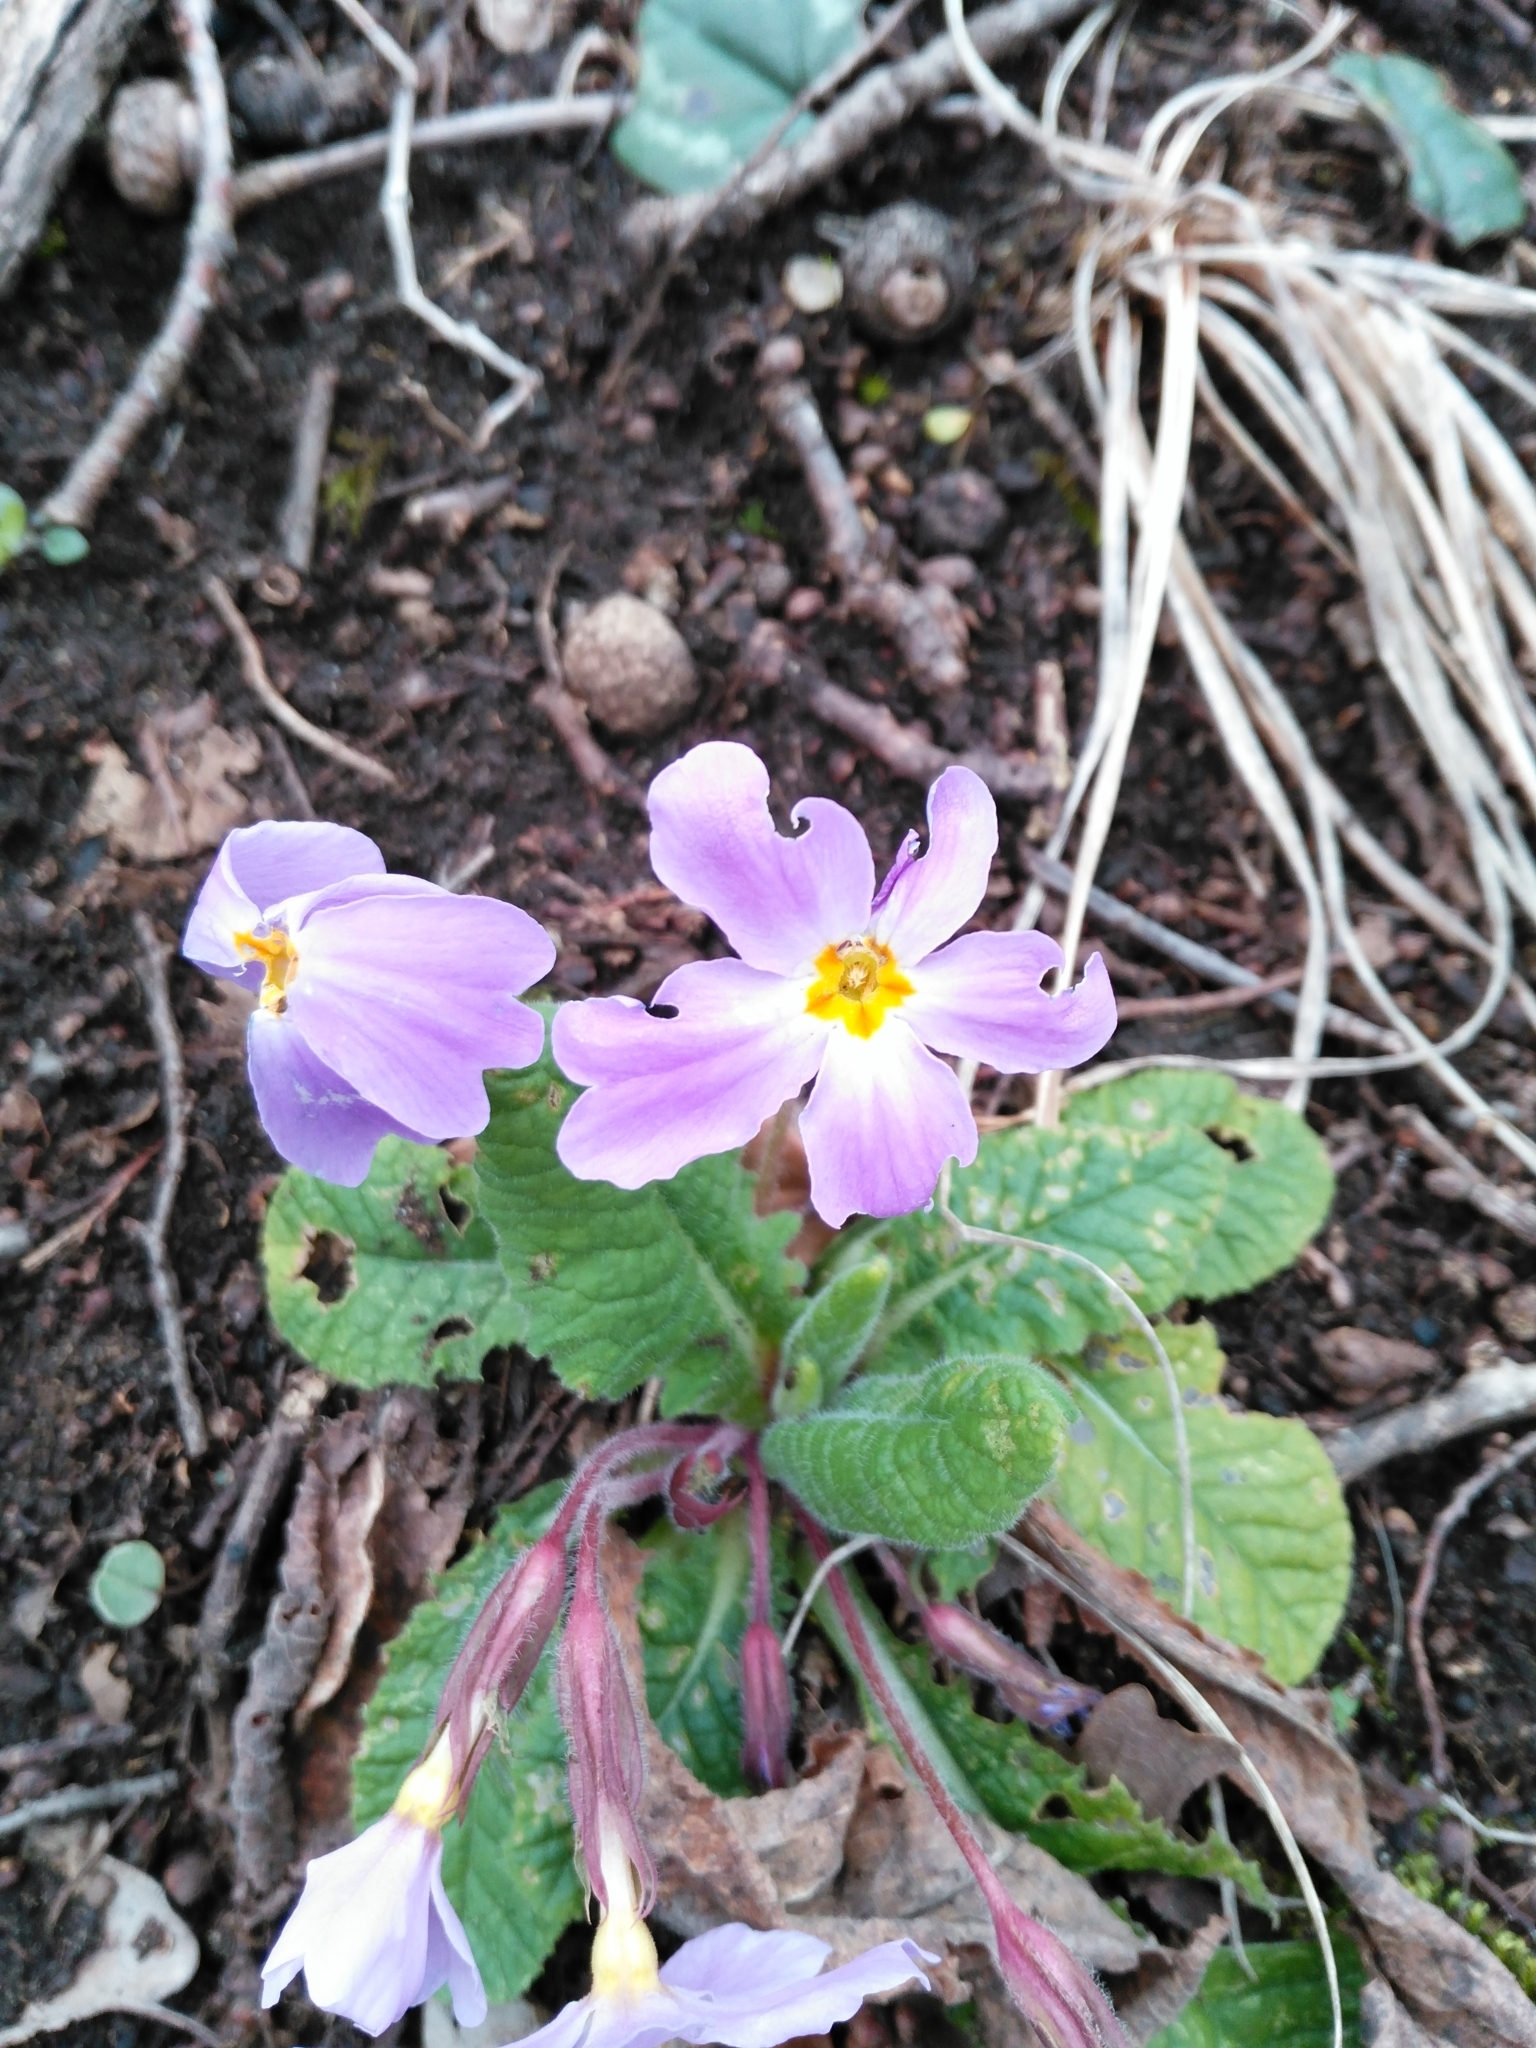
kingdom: Plantae
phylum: Tracheophyta
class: Magnoliopsida
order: Ericales
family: Primulaceae
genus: Primula
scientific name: Primula vulgaris
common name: Primrose
